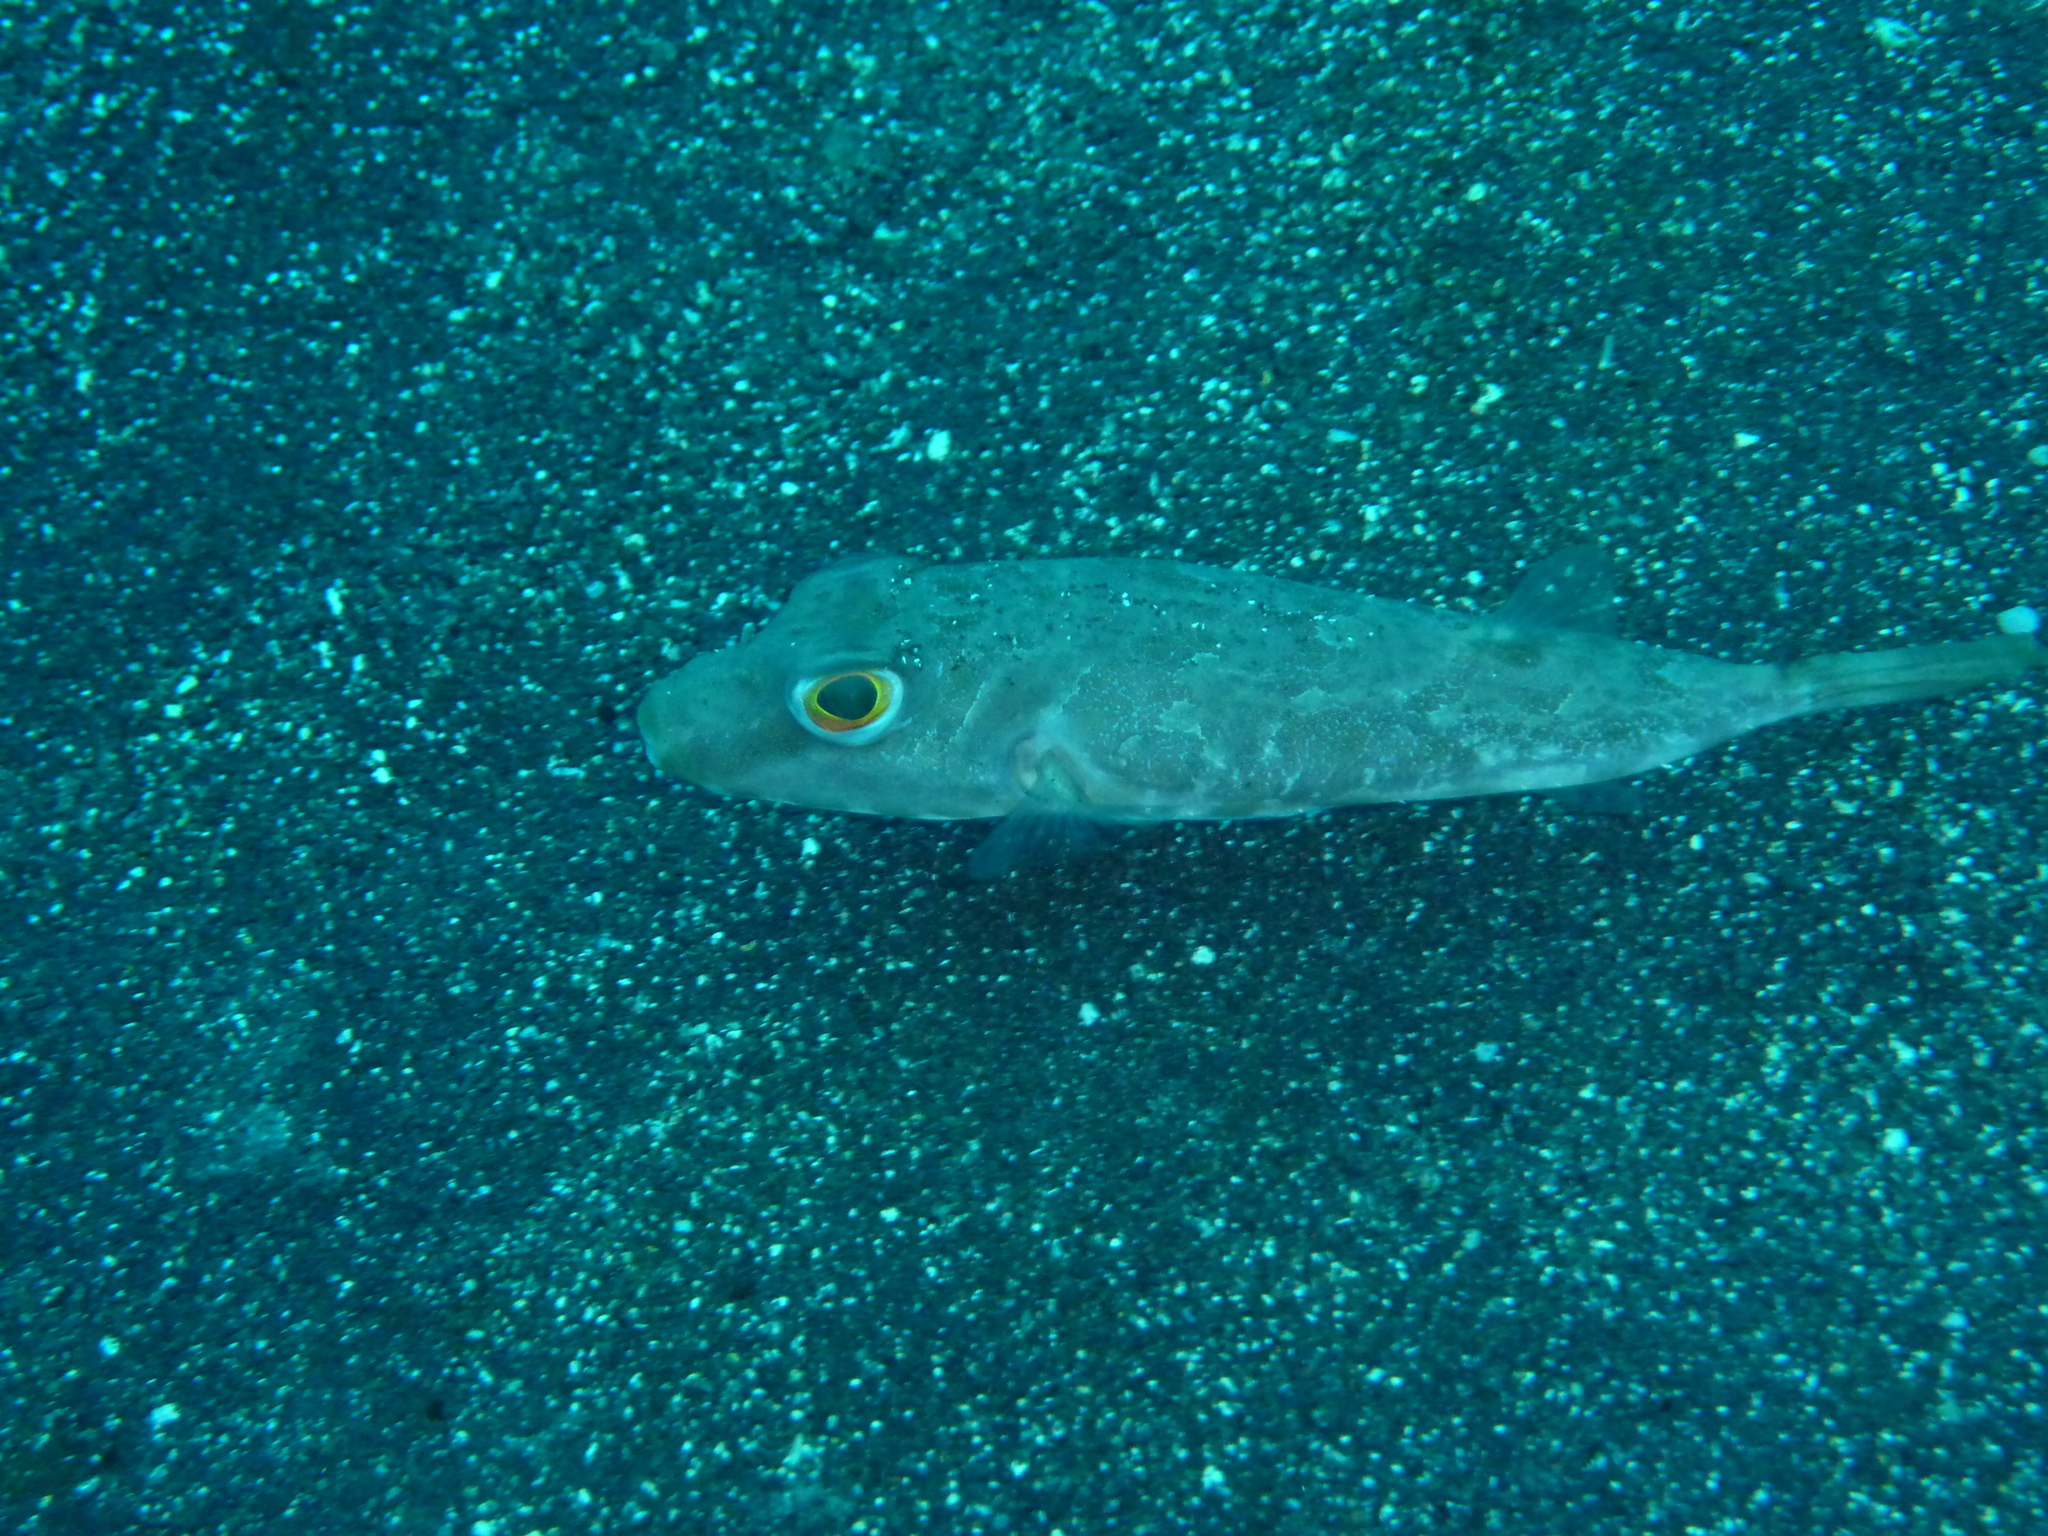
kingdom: Animalia
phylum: Chordata
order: Tetraodontiformes
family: Tetraodontidae
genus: Sphoeroides
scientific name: Sphoeroides marmoratus
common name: Guinean puffer
